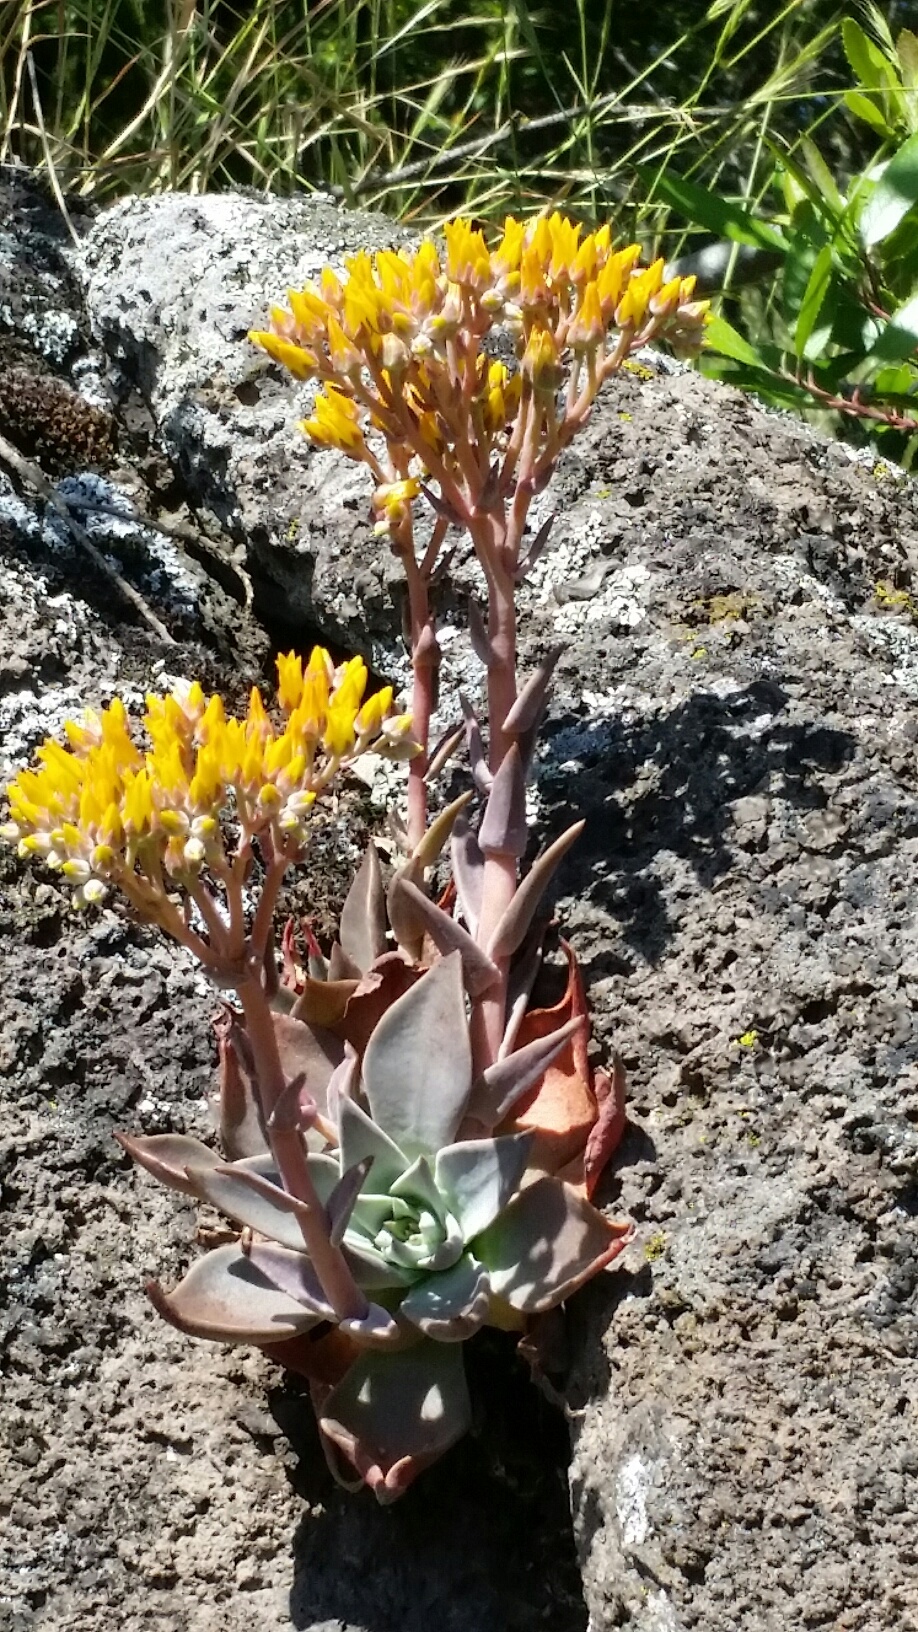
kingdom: Plantae
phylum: Tracheophyta
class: Magnoliopsida
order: Saxifragales
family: Crassulaceae
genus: Dudleya
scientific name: Dudleya cymosa
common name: Canyon dudleya
